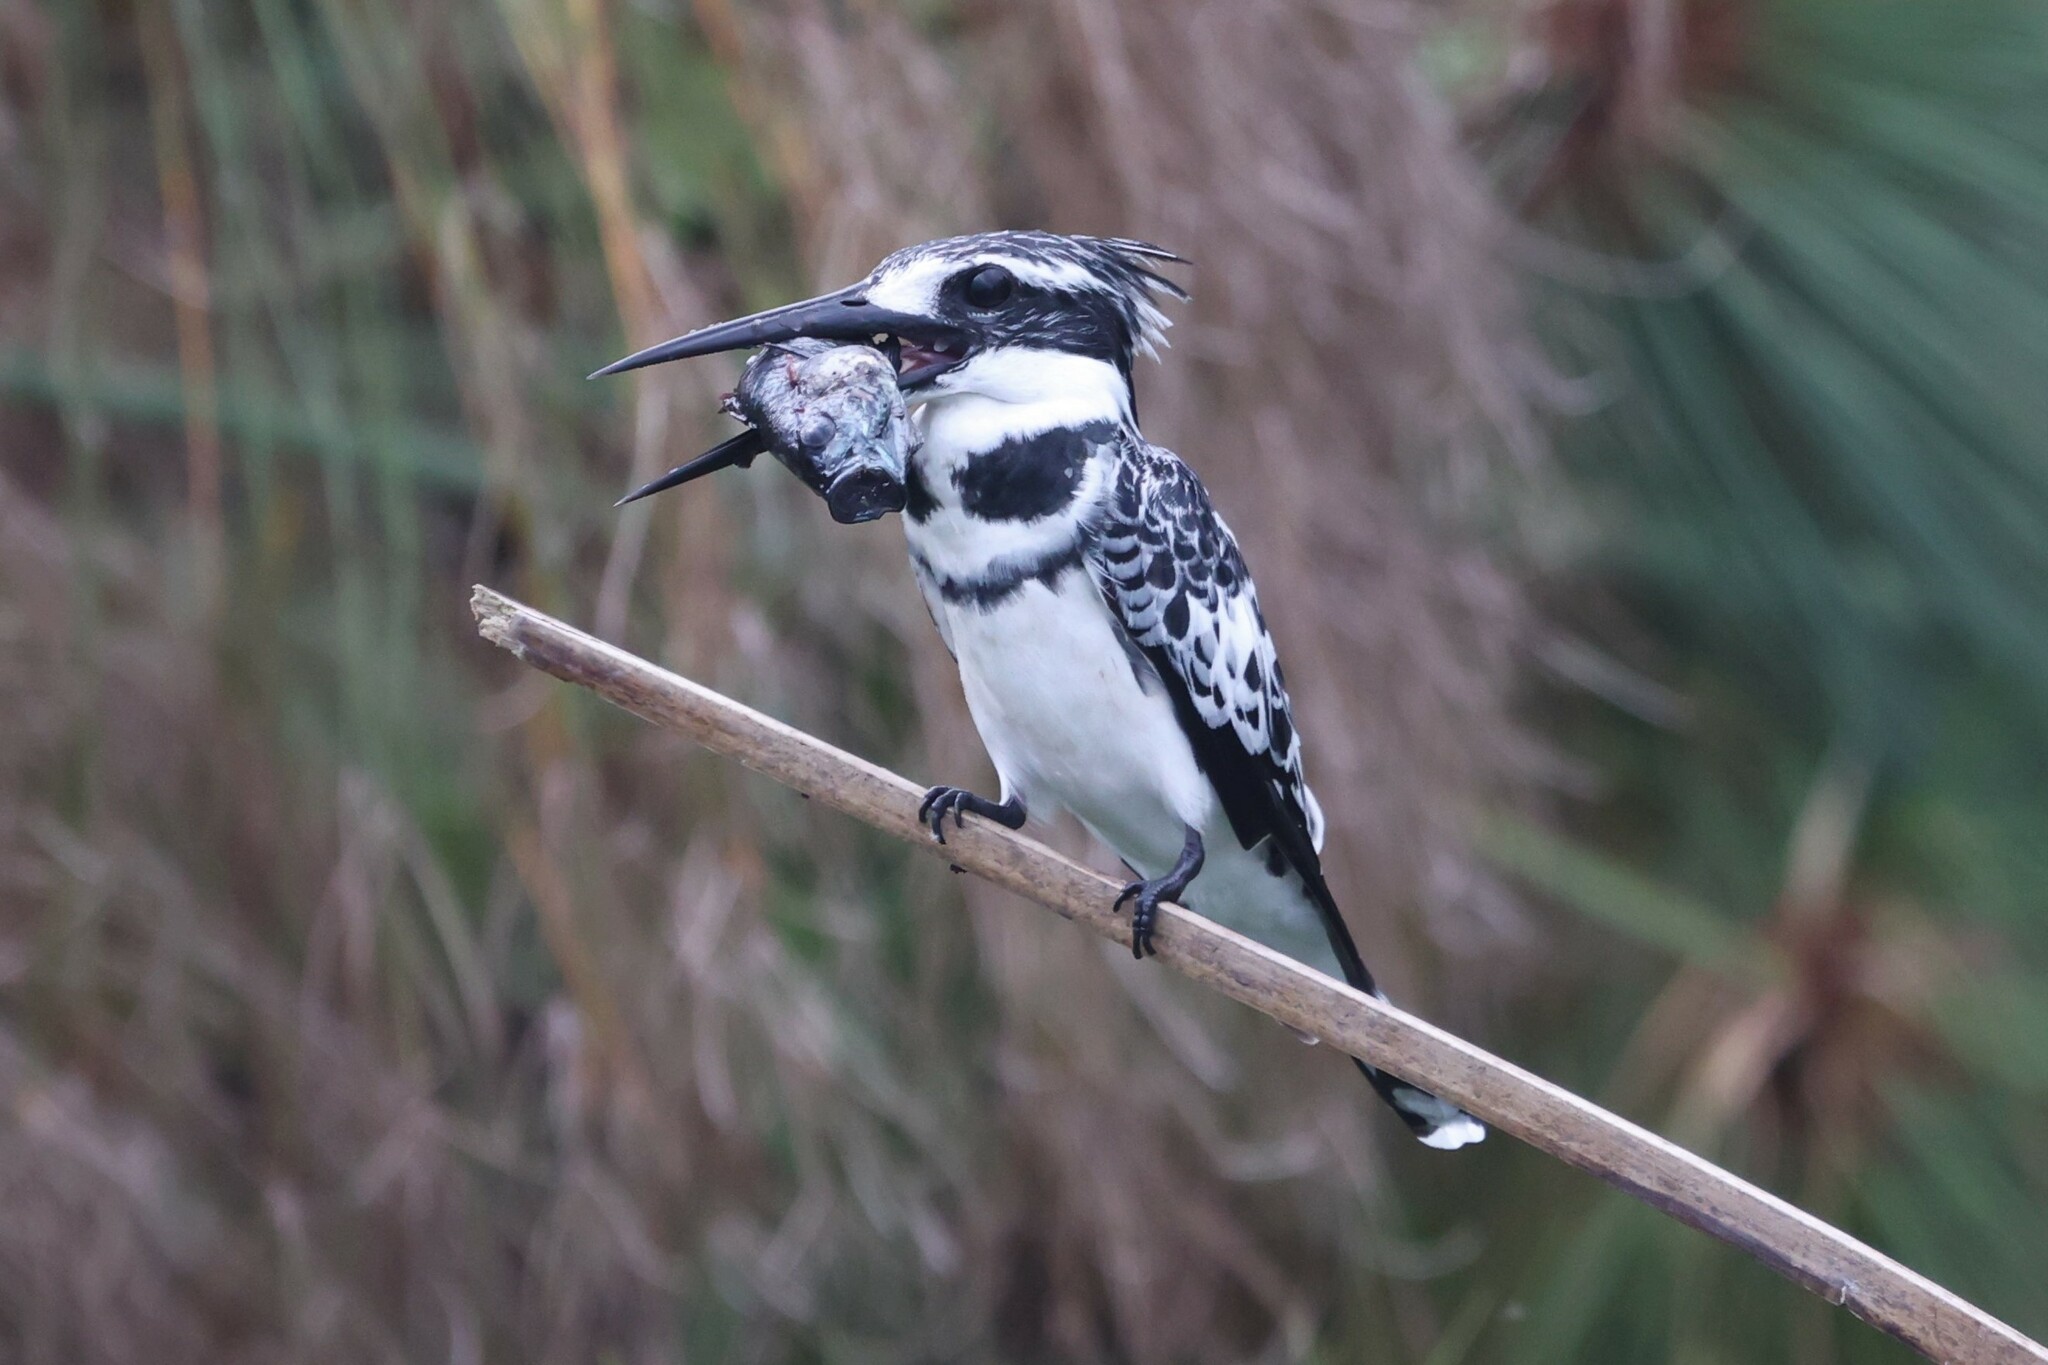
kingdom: Animalia
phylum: Chordata
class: Aves
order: Coraciiformes
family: Alcedinidae
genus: Ceryle
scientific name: Ceryle rudis
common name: Pied kingfisher
